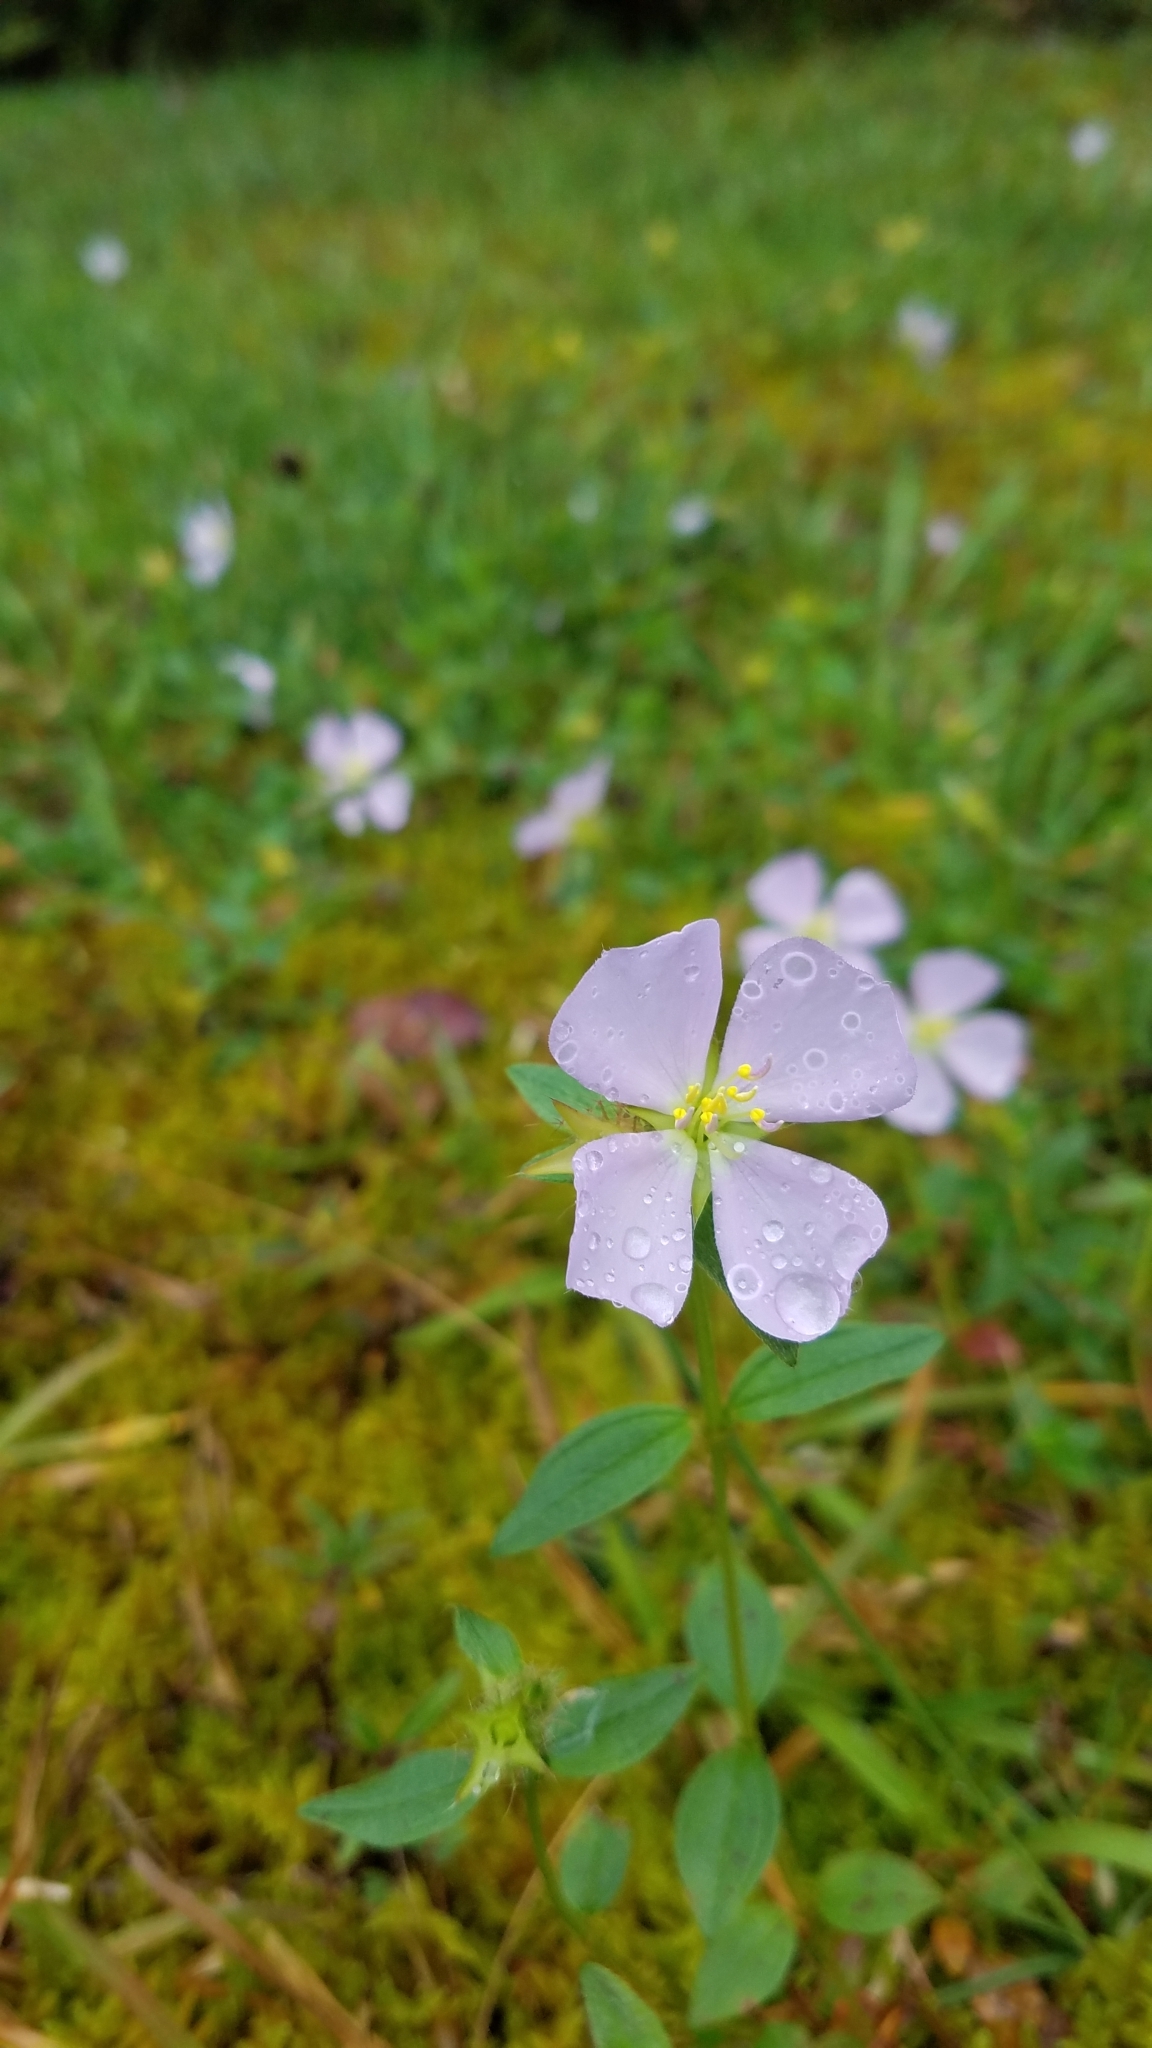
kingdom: Plantae
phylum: Tracheophyta
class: Magnoliopsida
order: Myrtales
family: Melastomataceae
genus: Pterolepis
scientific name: Pterolepis glomerata
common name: False meadowbeauty
